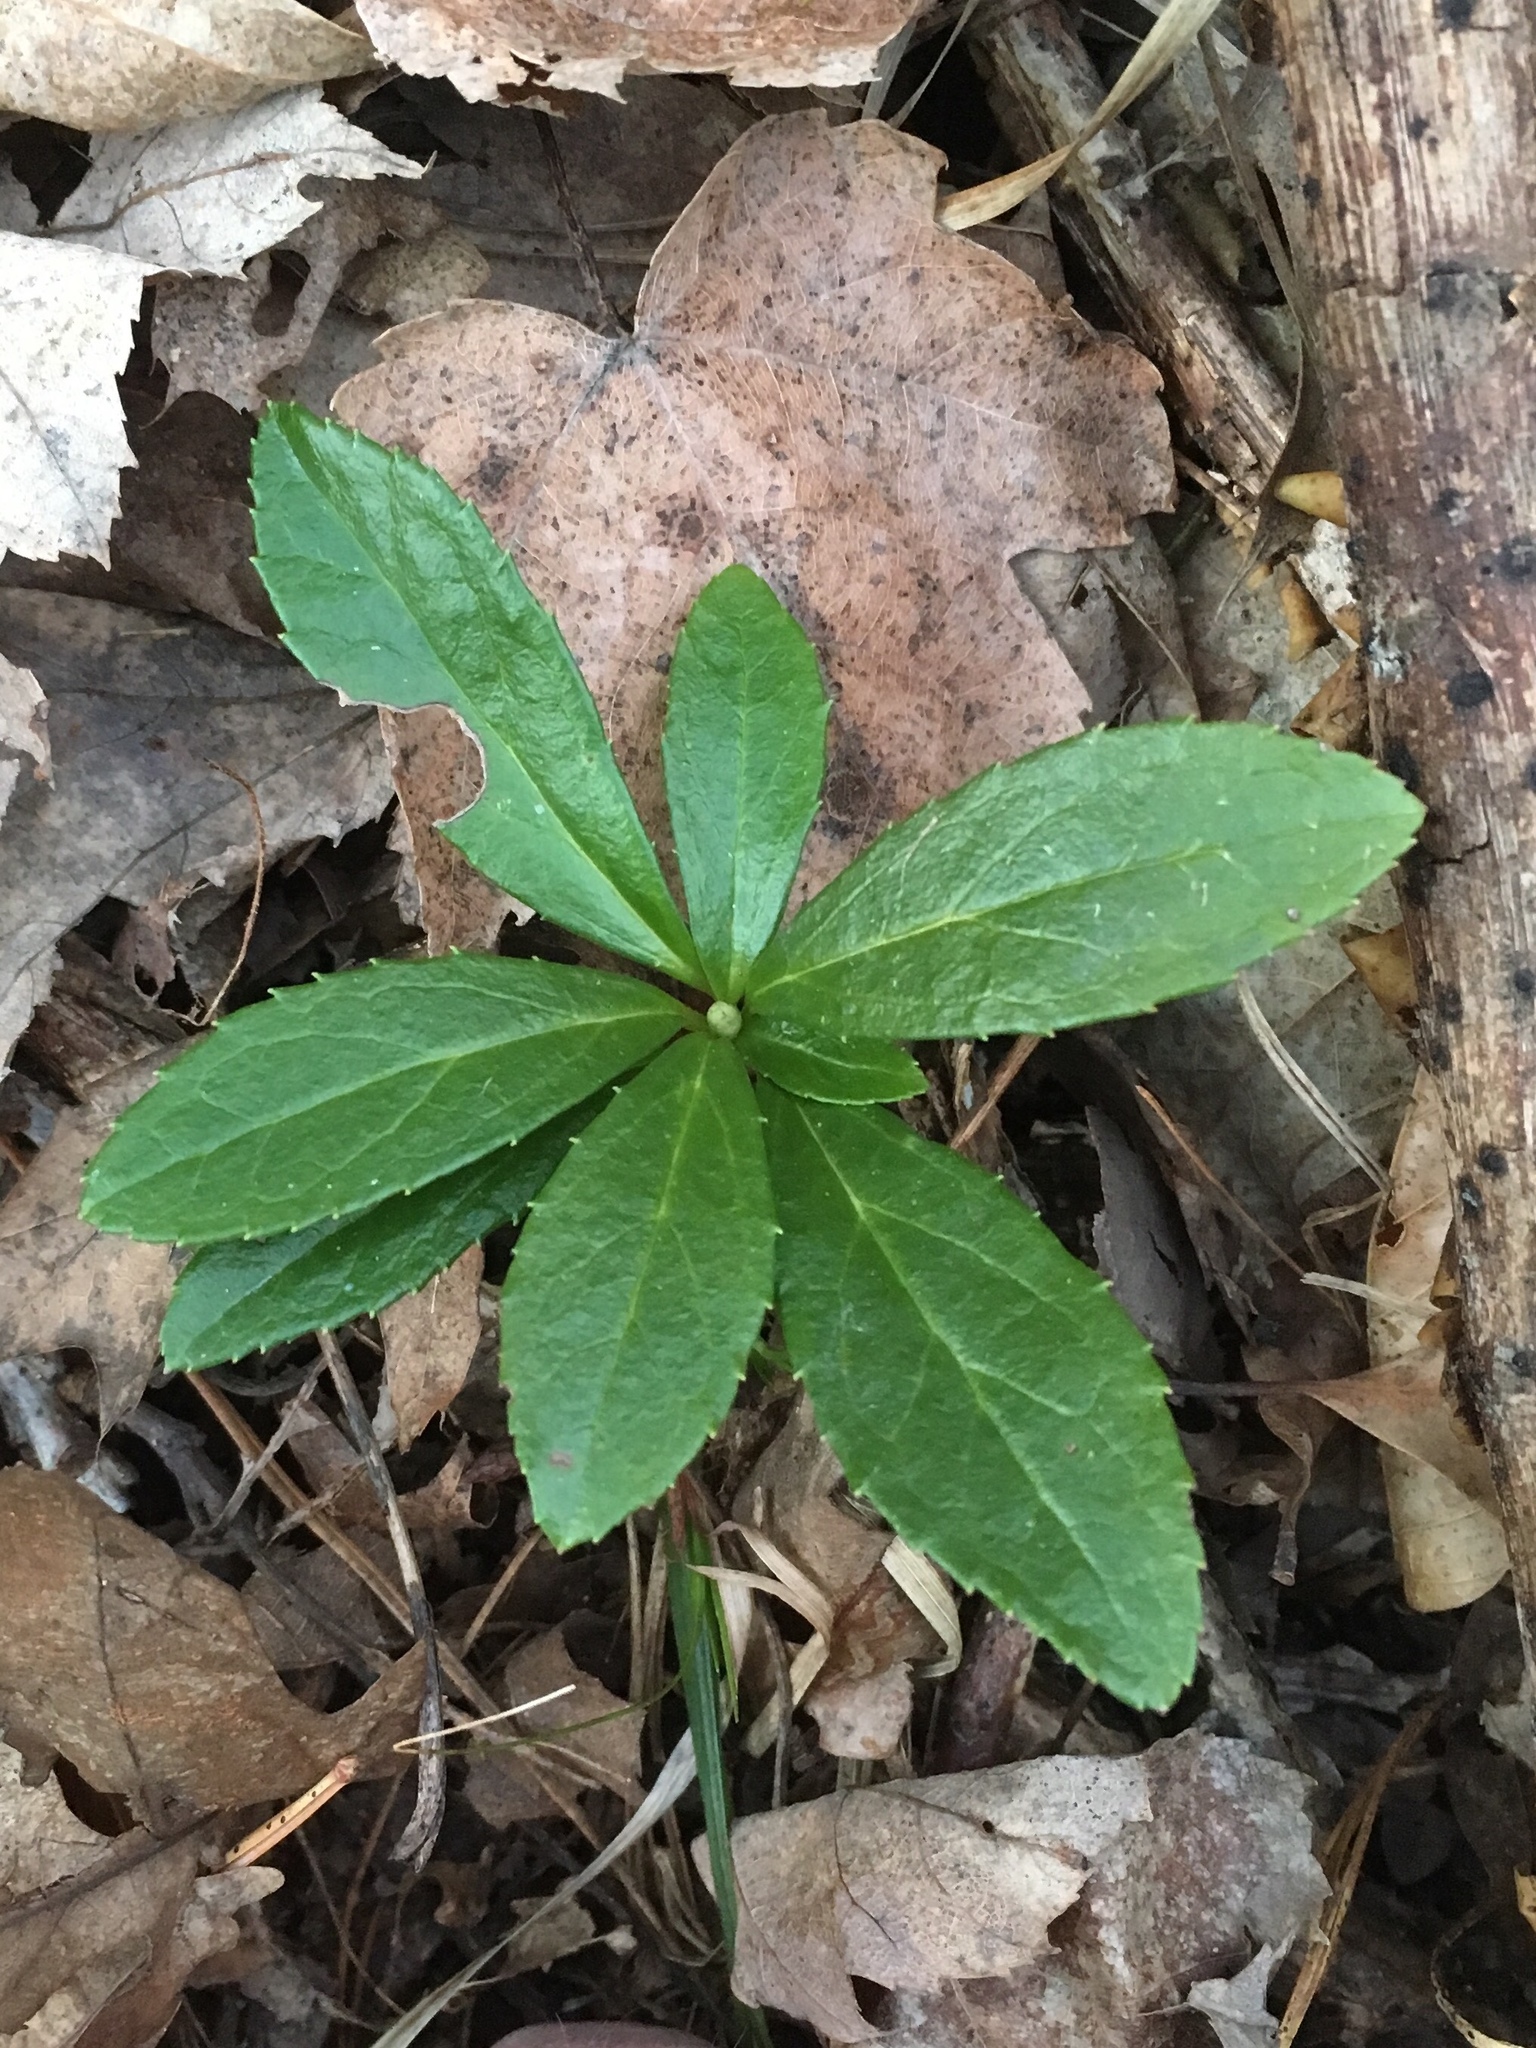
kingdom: Plantae
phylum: Tracheophyta
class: Magnoliopsida
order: Ericales
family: Ericaceae
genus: Chimaphila
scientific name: Chimaphila umbellata
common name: Pipsissewa
